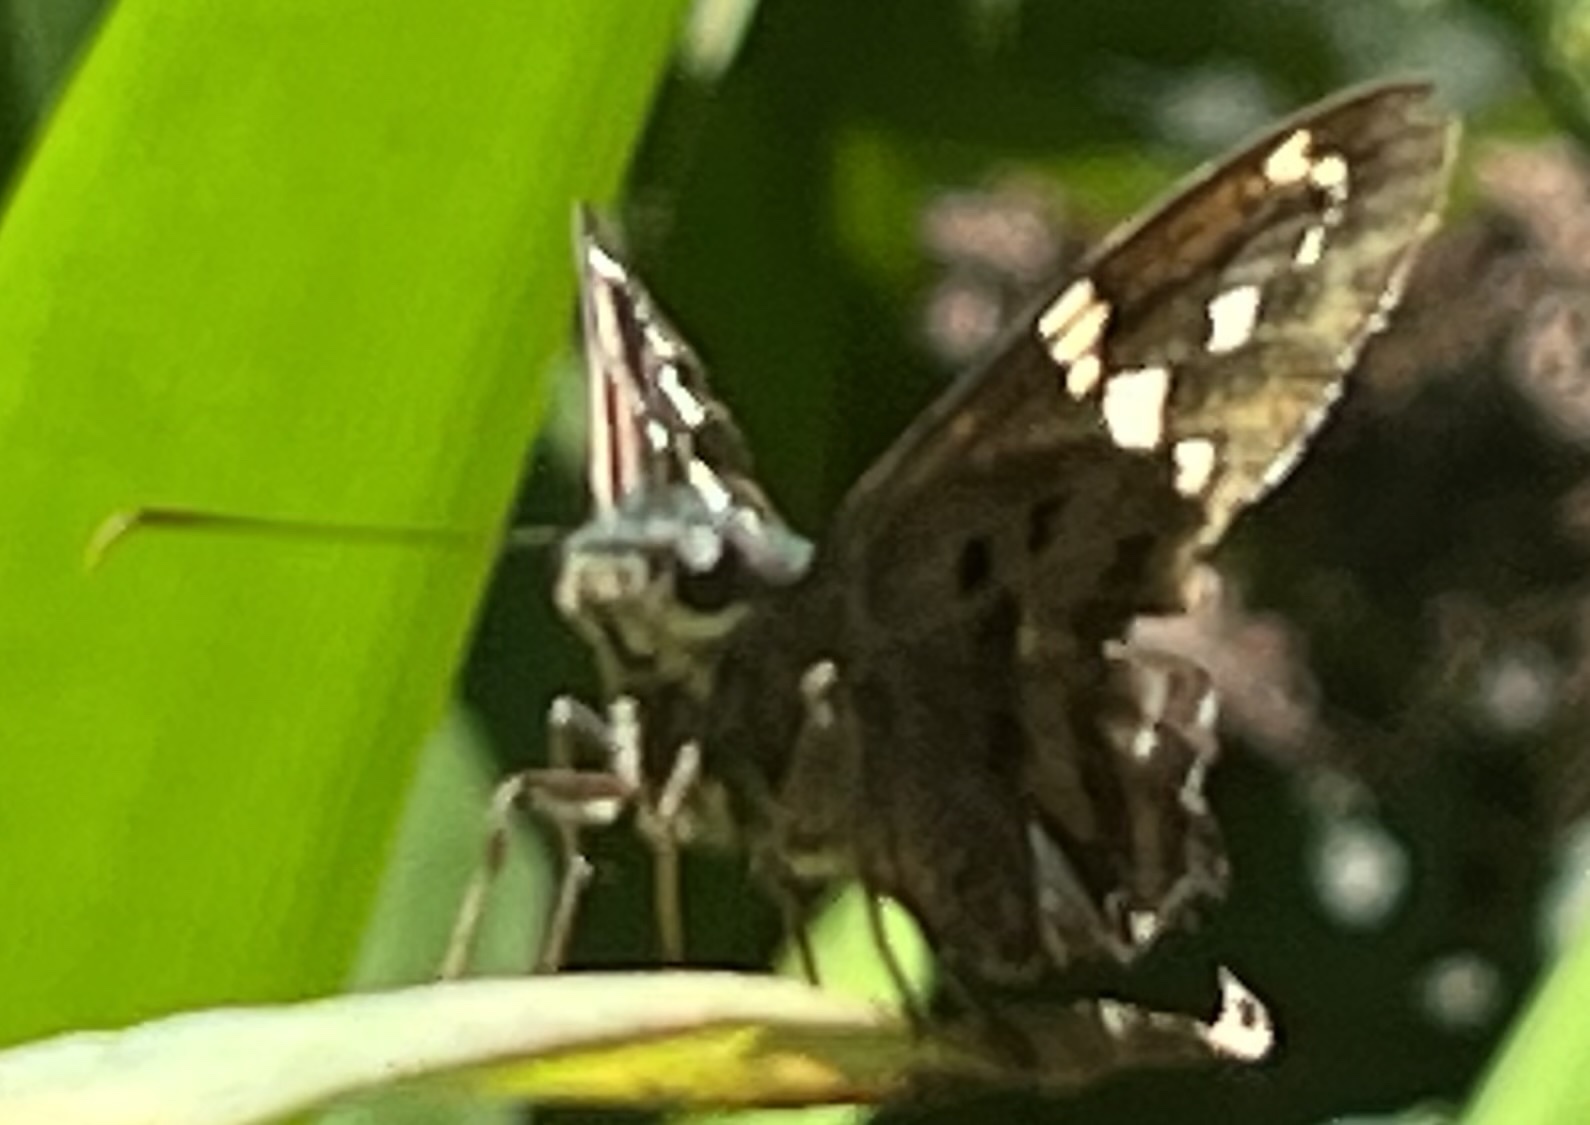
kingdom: Animalia
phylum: Arthropoda
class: Insecta
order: Lepidoptera
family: Hesperiidae
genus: Urbanus
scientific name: Urbanus proteus
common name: Long-tailed skipper
